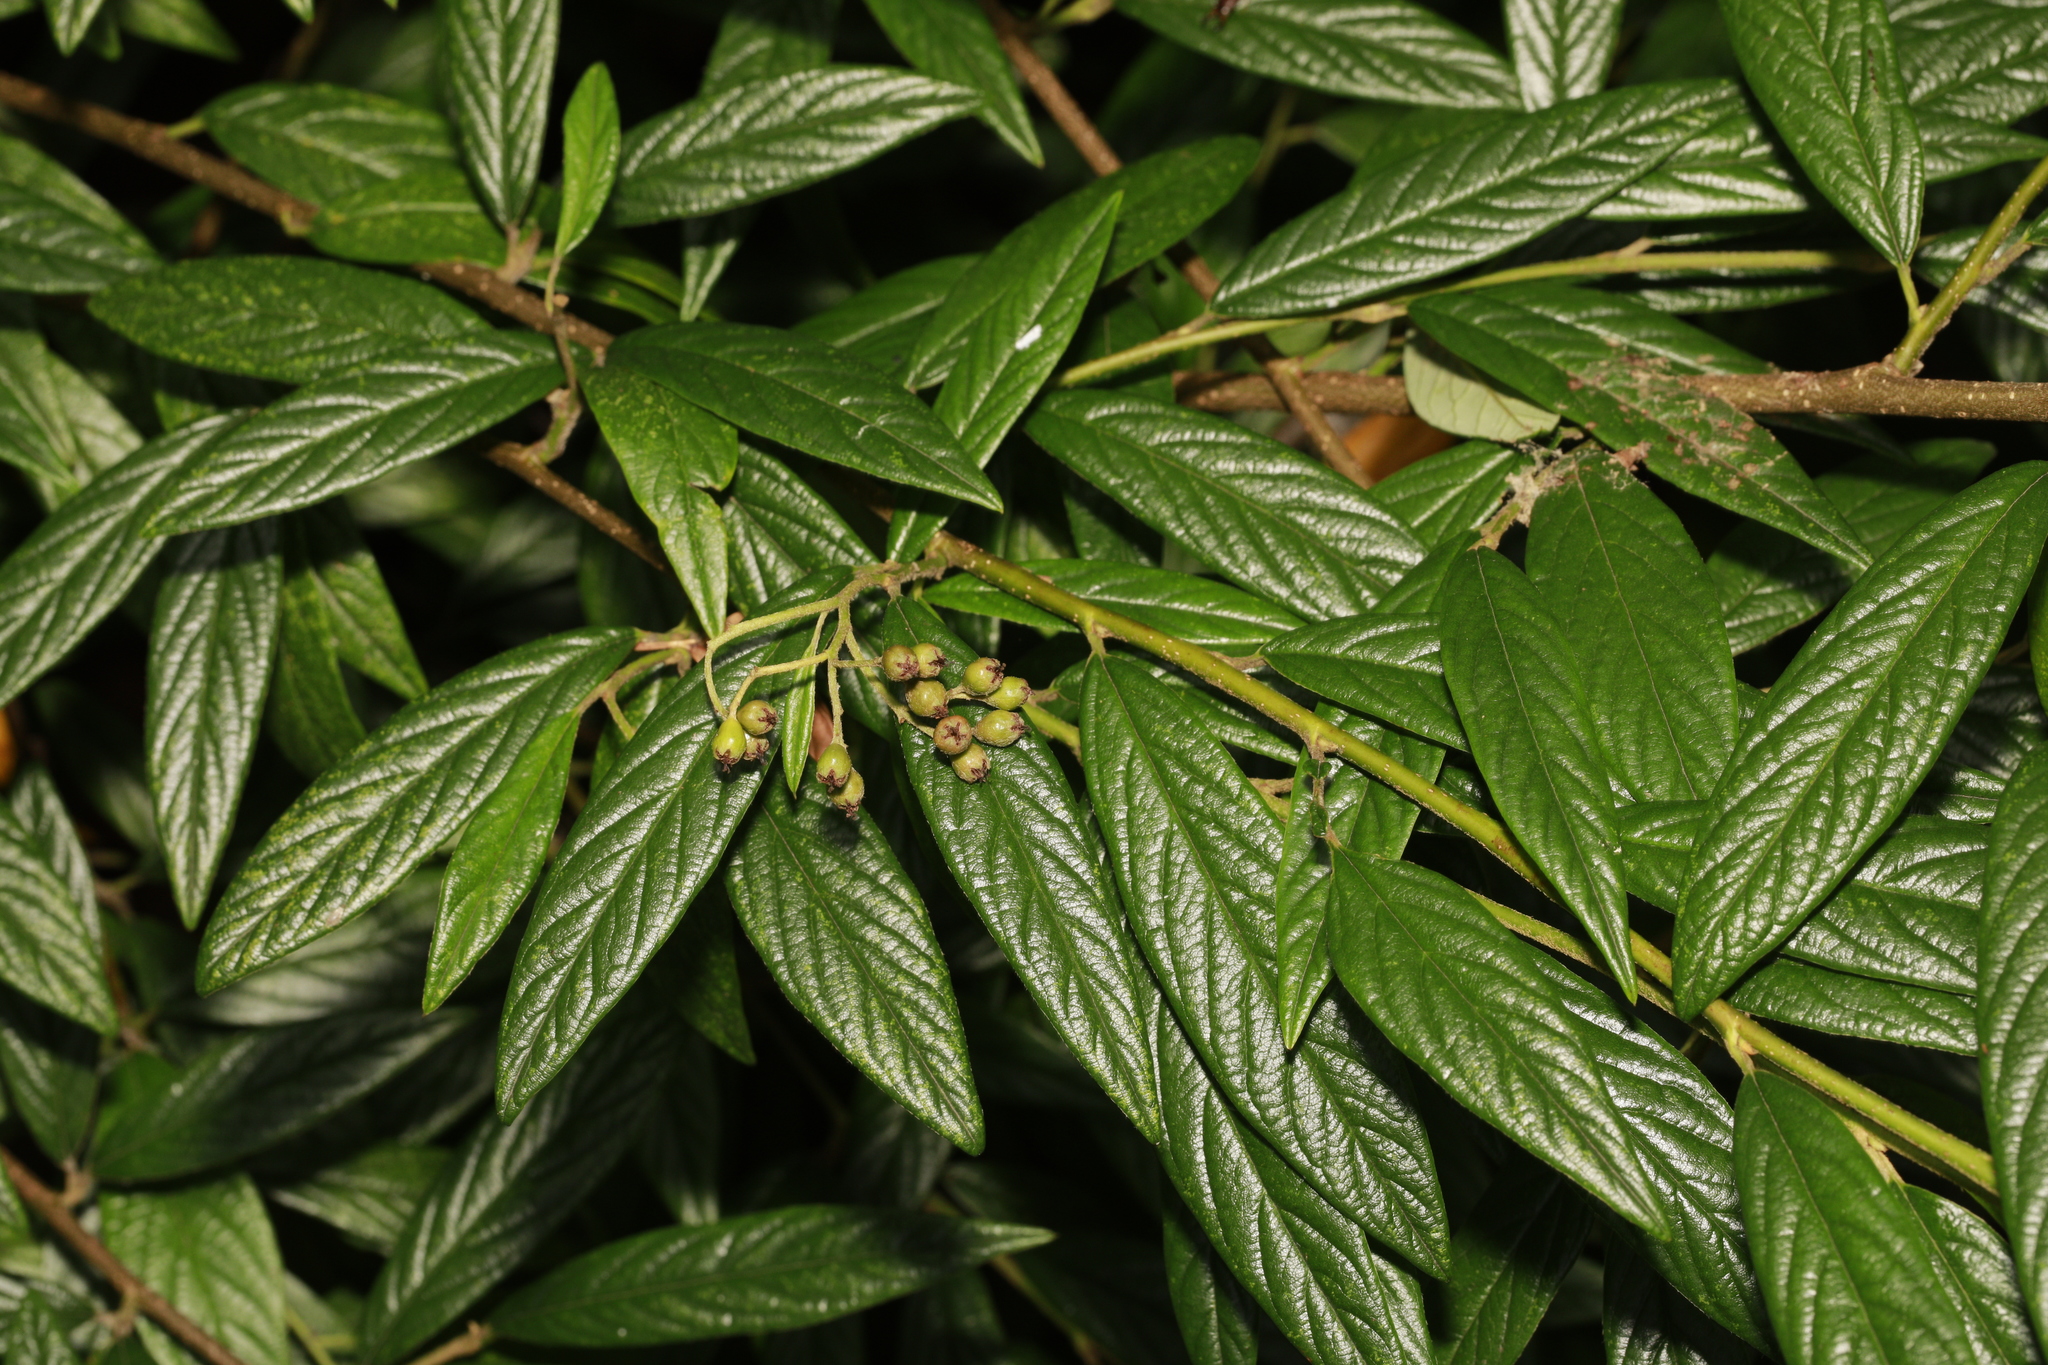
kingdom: Plantae
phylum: Tracheophyta
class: Magnoliopsida
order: Rosales
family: Rosaceae
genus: Cotoneaster
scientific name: Cotoneaster salicifolius
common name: Willow-leaved cotoneaster
